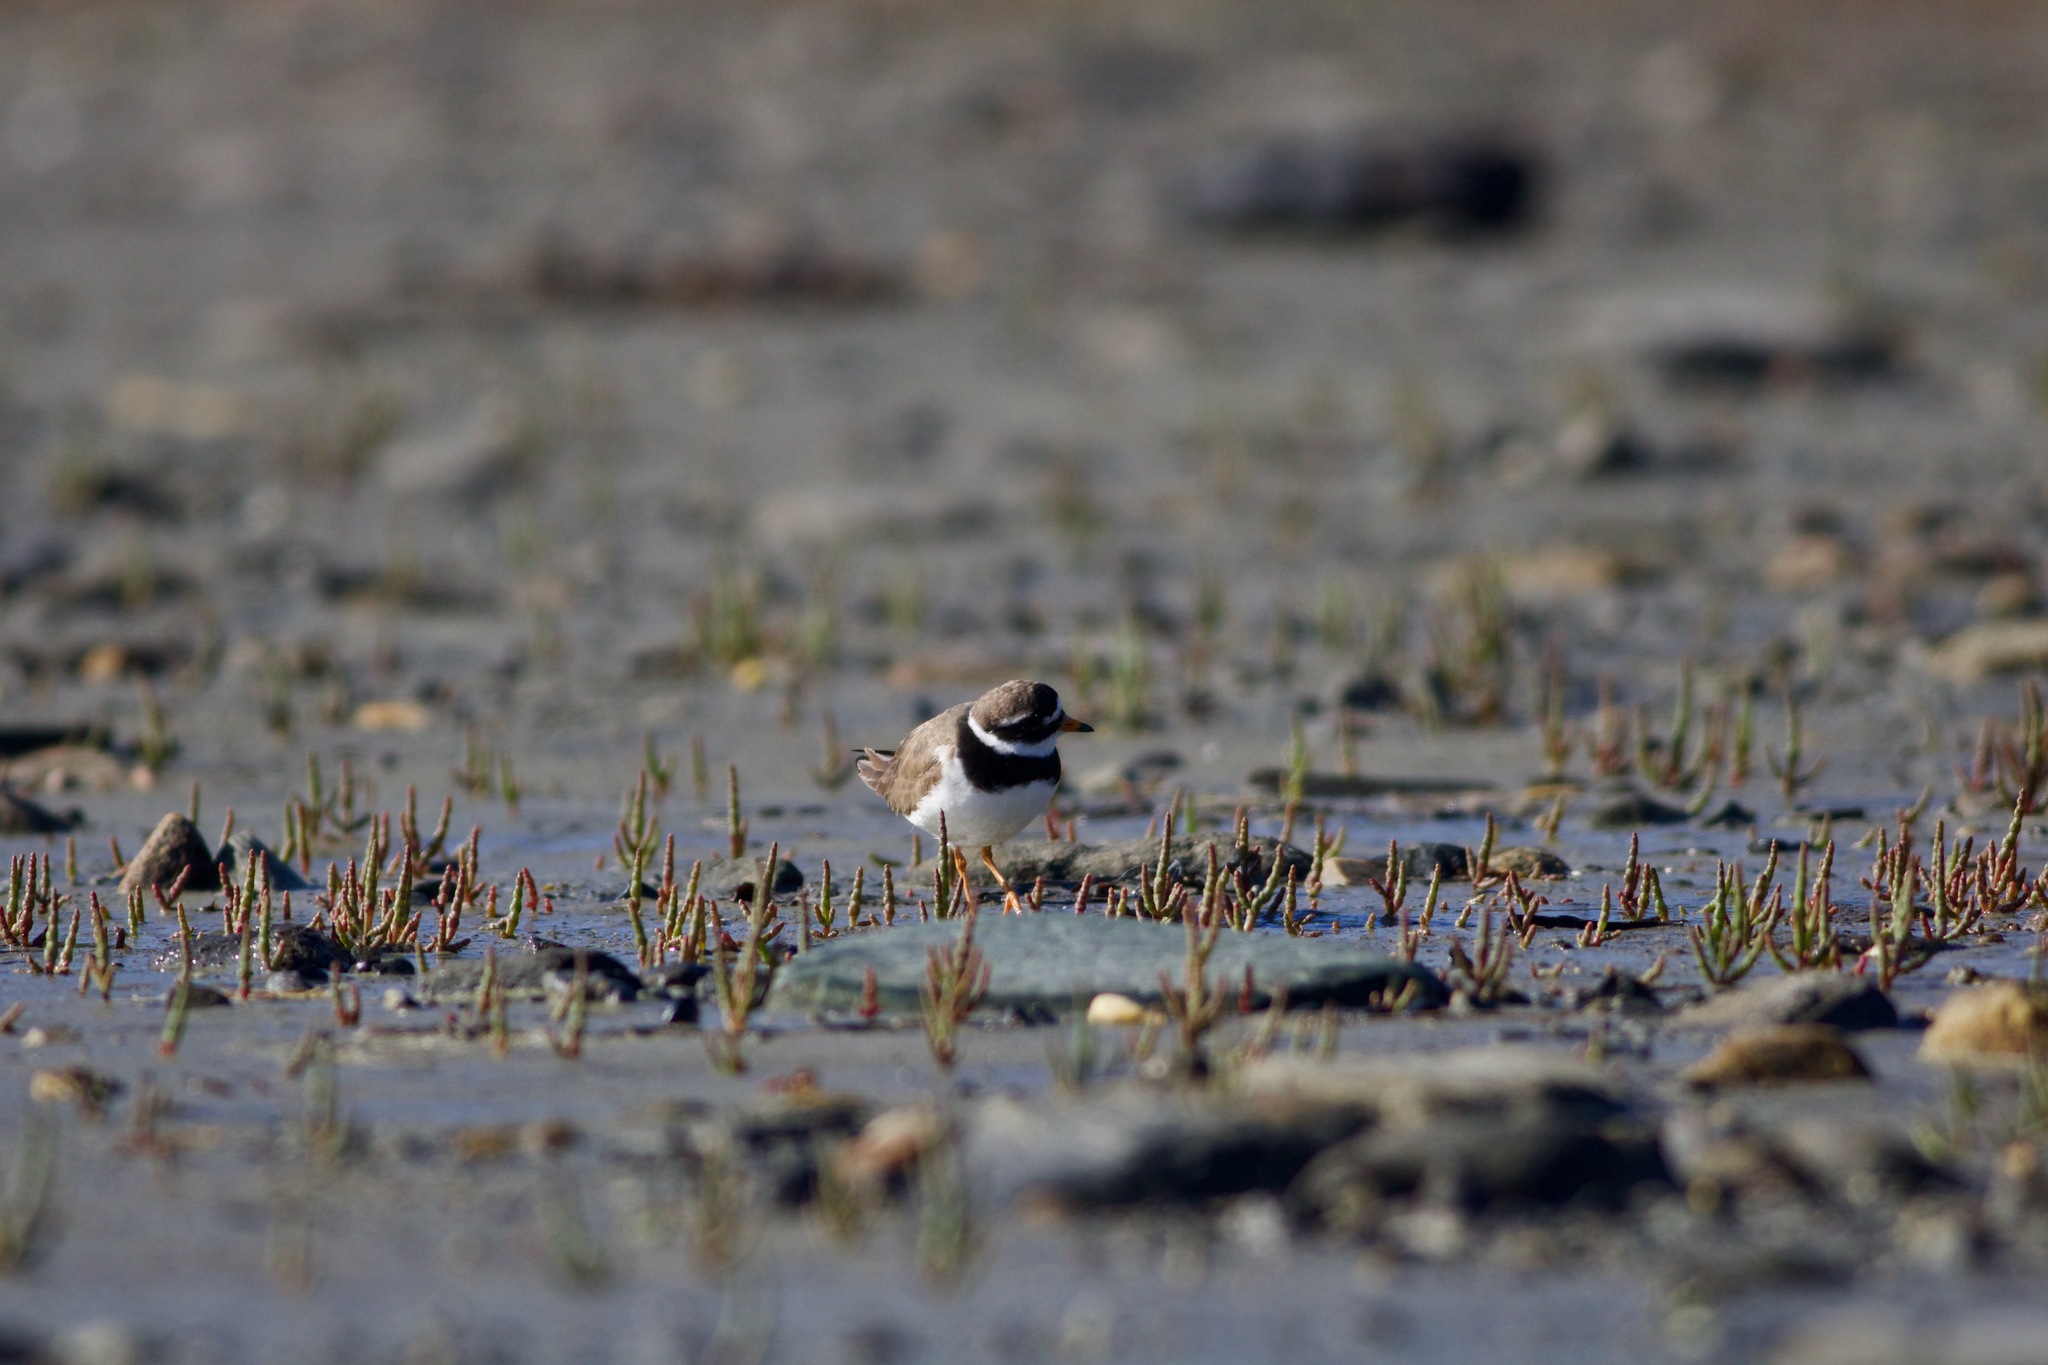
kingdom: Animalia
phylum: Chordata
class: Aves
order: Charadriiformes
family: Charadriidae
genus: Charadrius
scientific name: Charadrius hiaticula
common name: Common ringed plover
